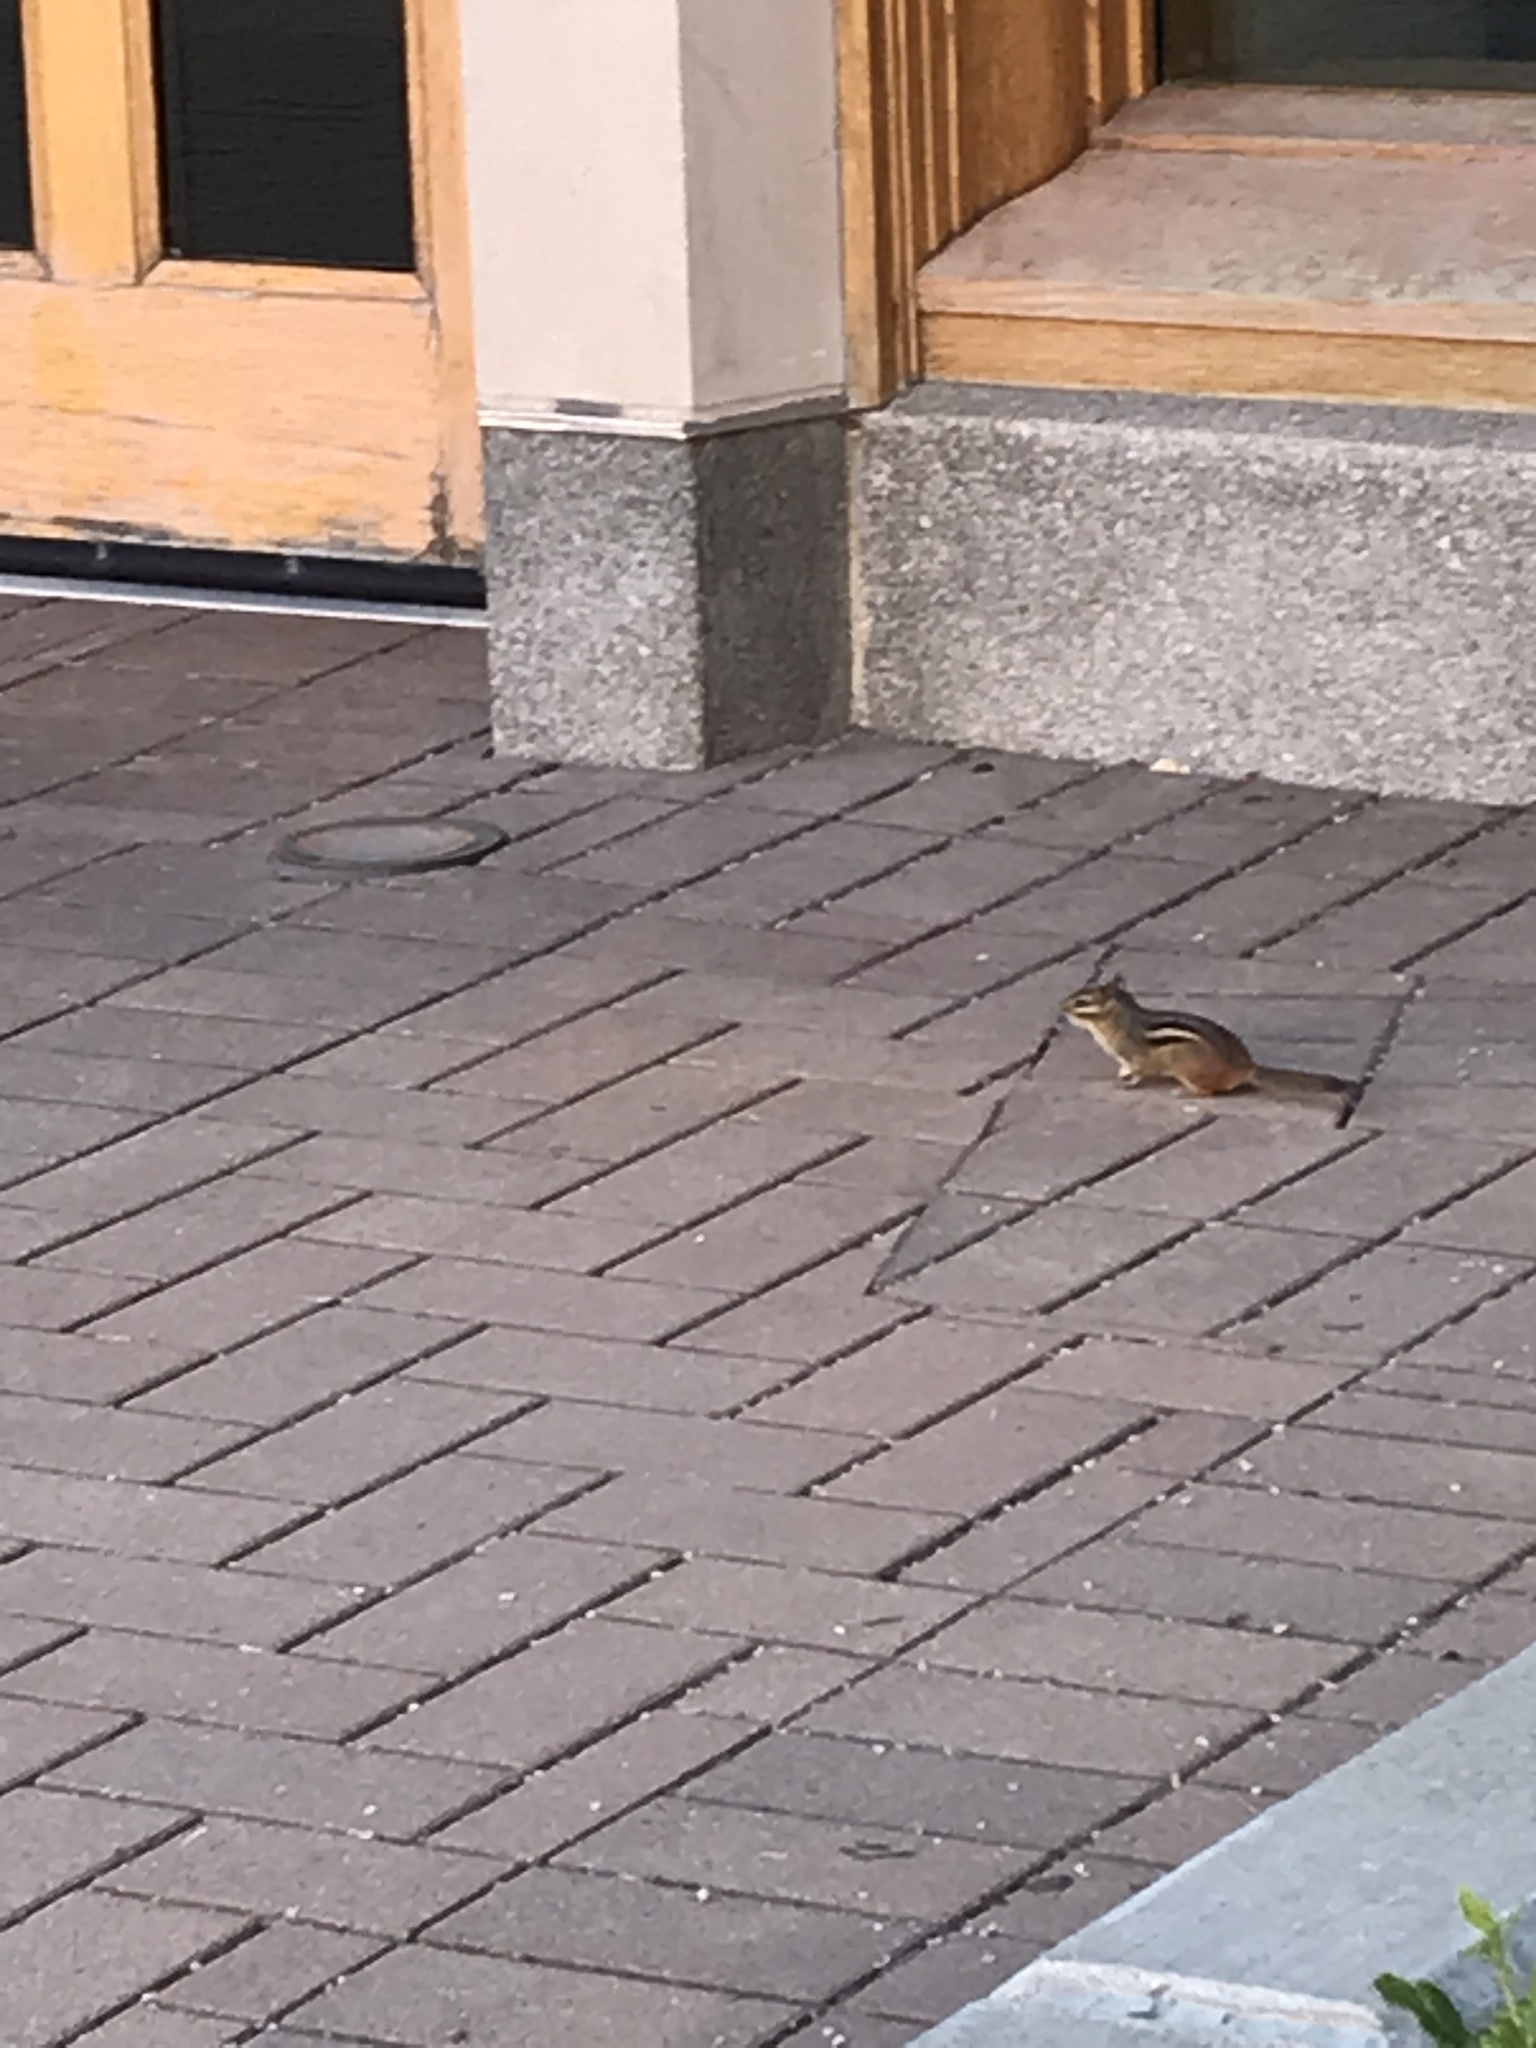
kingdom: Animalia
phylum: Chordata
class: Mammalia
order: Rodentia
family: Sciuridae
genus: Tamias
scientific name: Tamias striatus
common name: Eastern chipmunk
